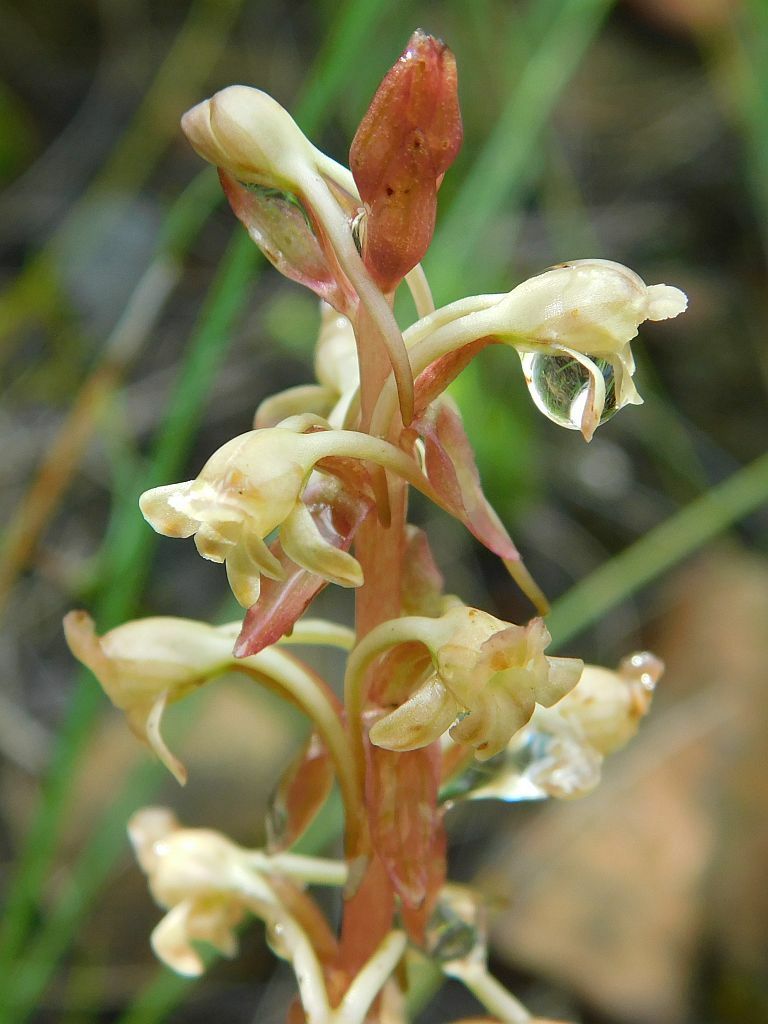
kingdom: Plantae
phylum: Tracheophyta
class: Liliopsida
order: Asparagales
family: Orchidaceae
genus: Satyrium
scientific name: Satyrium humile
